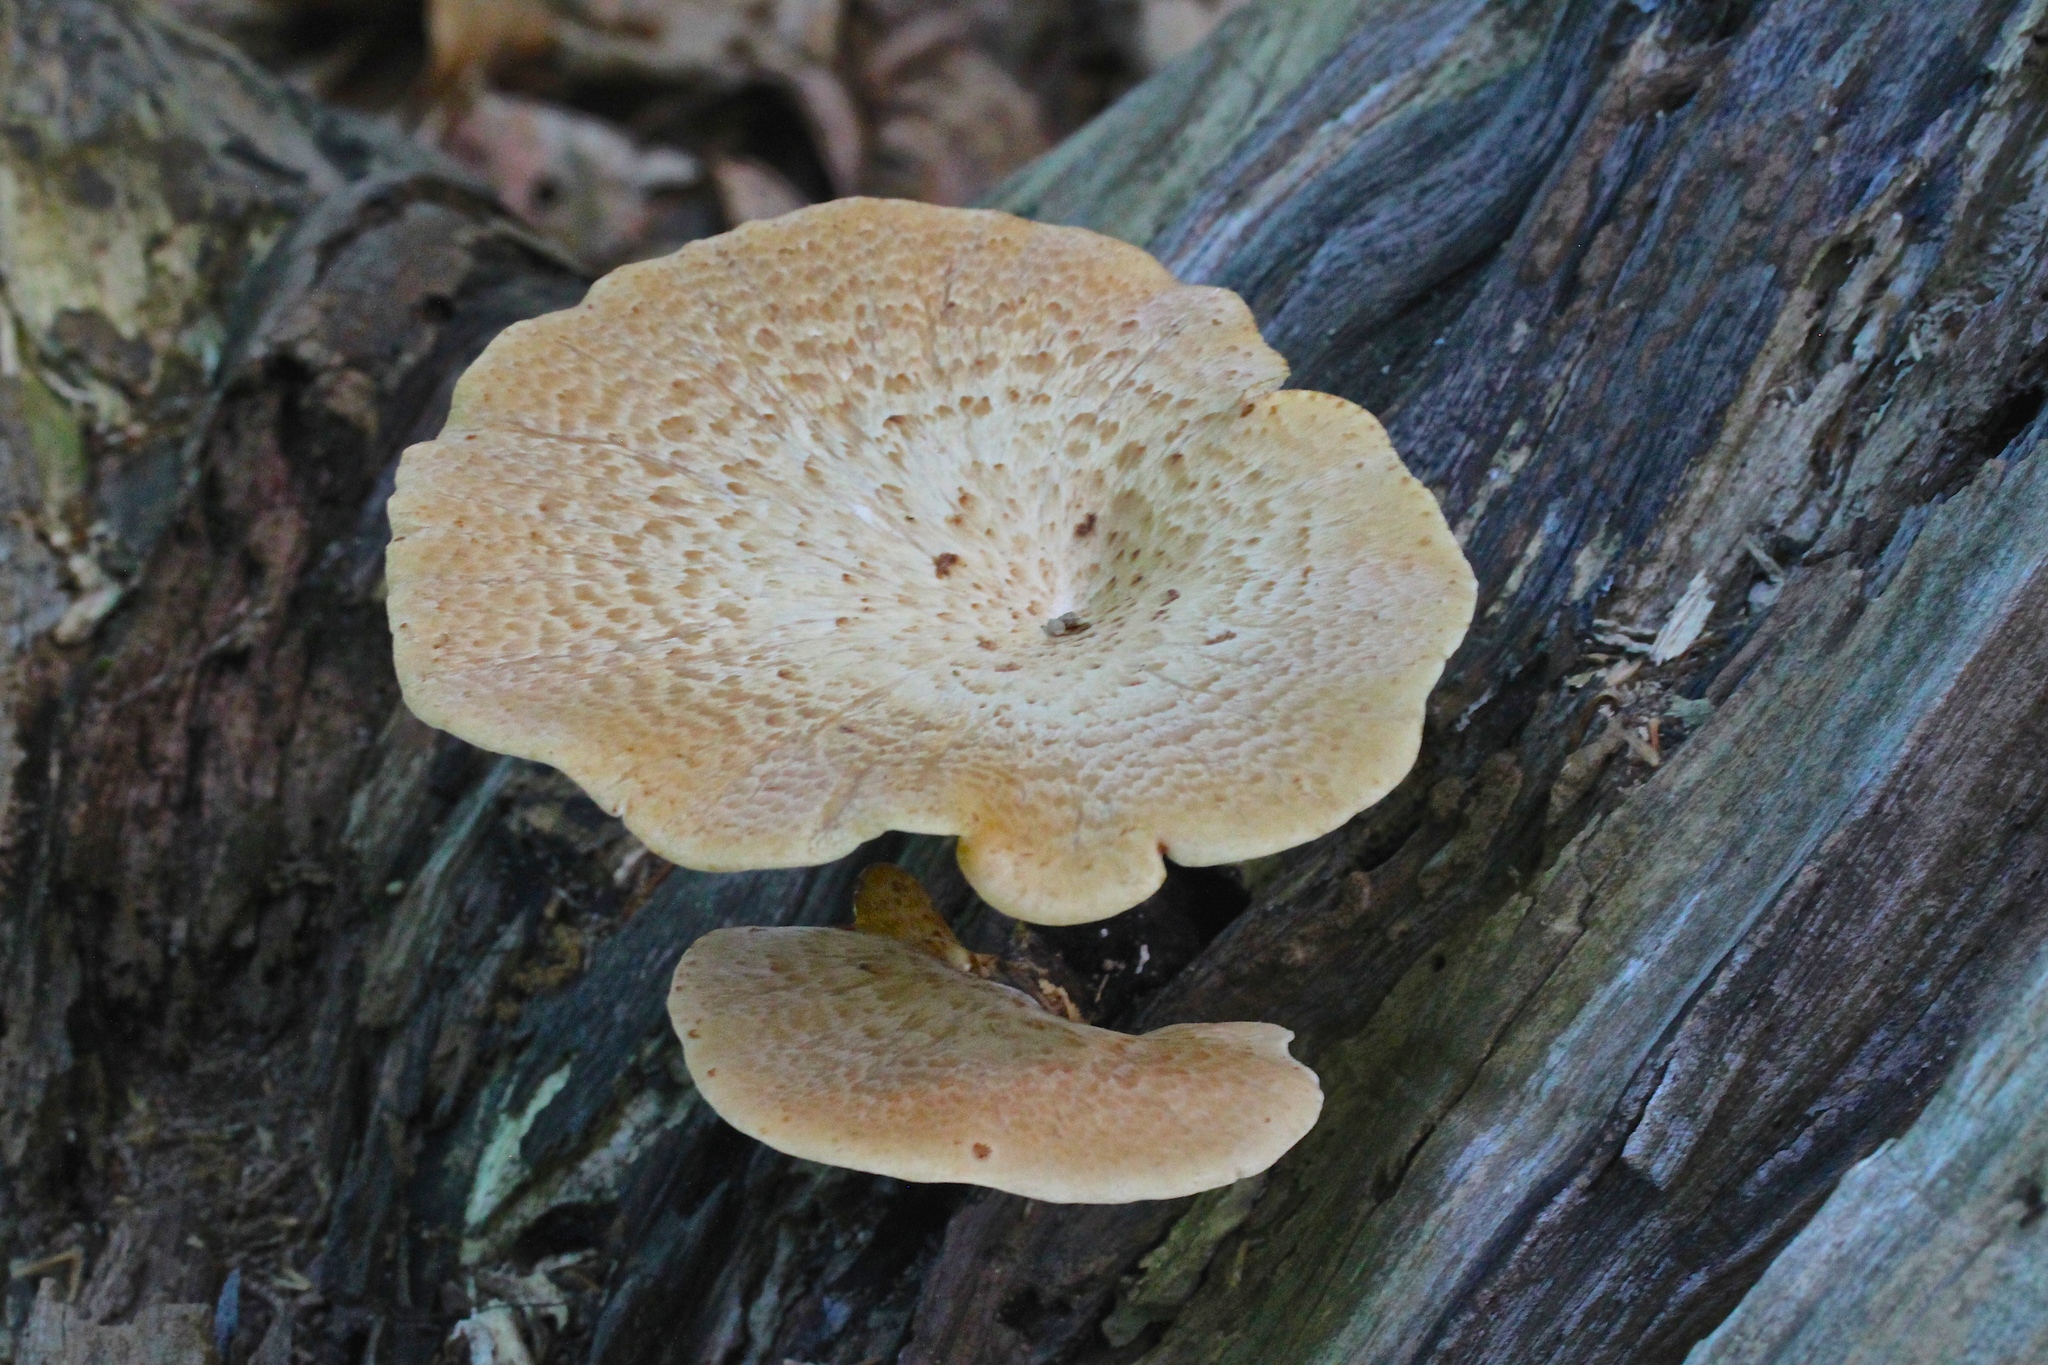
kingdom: Fungi
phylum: Basidiomycota
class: Agaricomycetes
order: Polyporales
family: Polyporaceae
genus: Cerioporus
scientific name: Cerioporus squamosus
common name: Dryad's saddle
